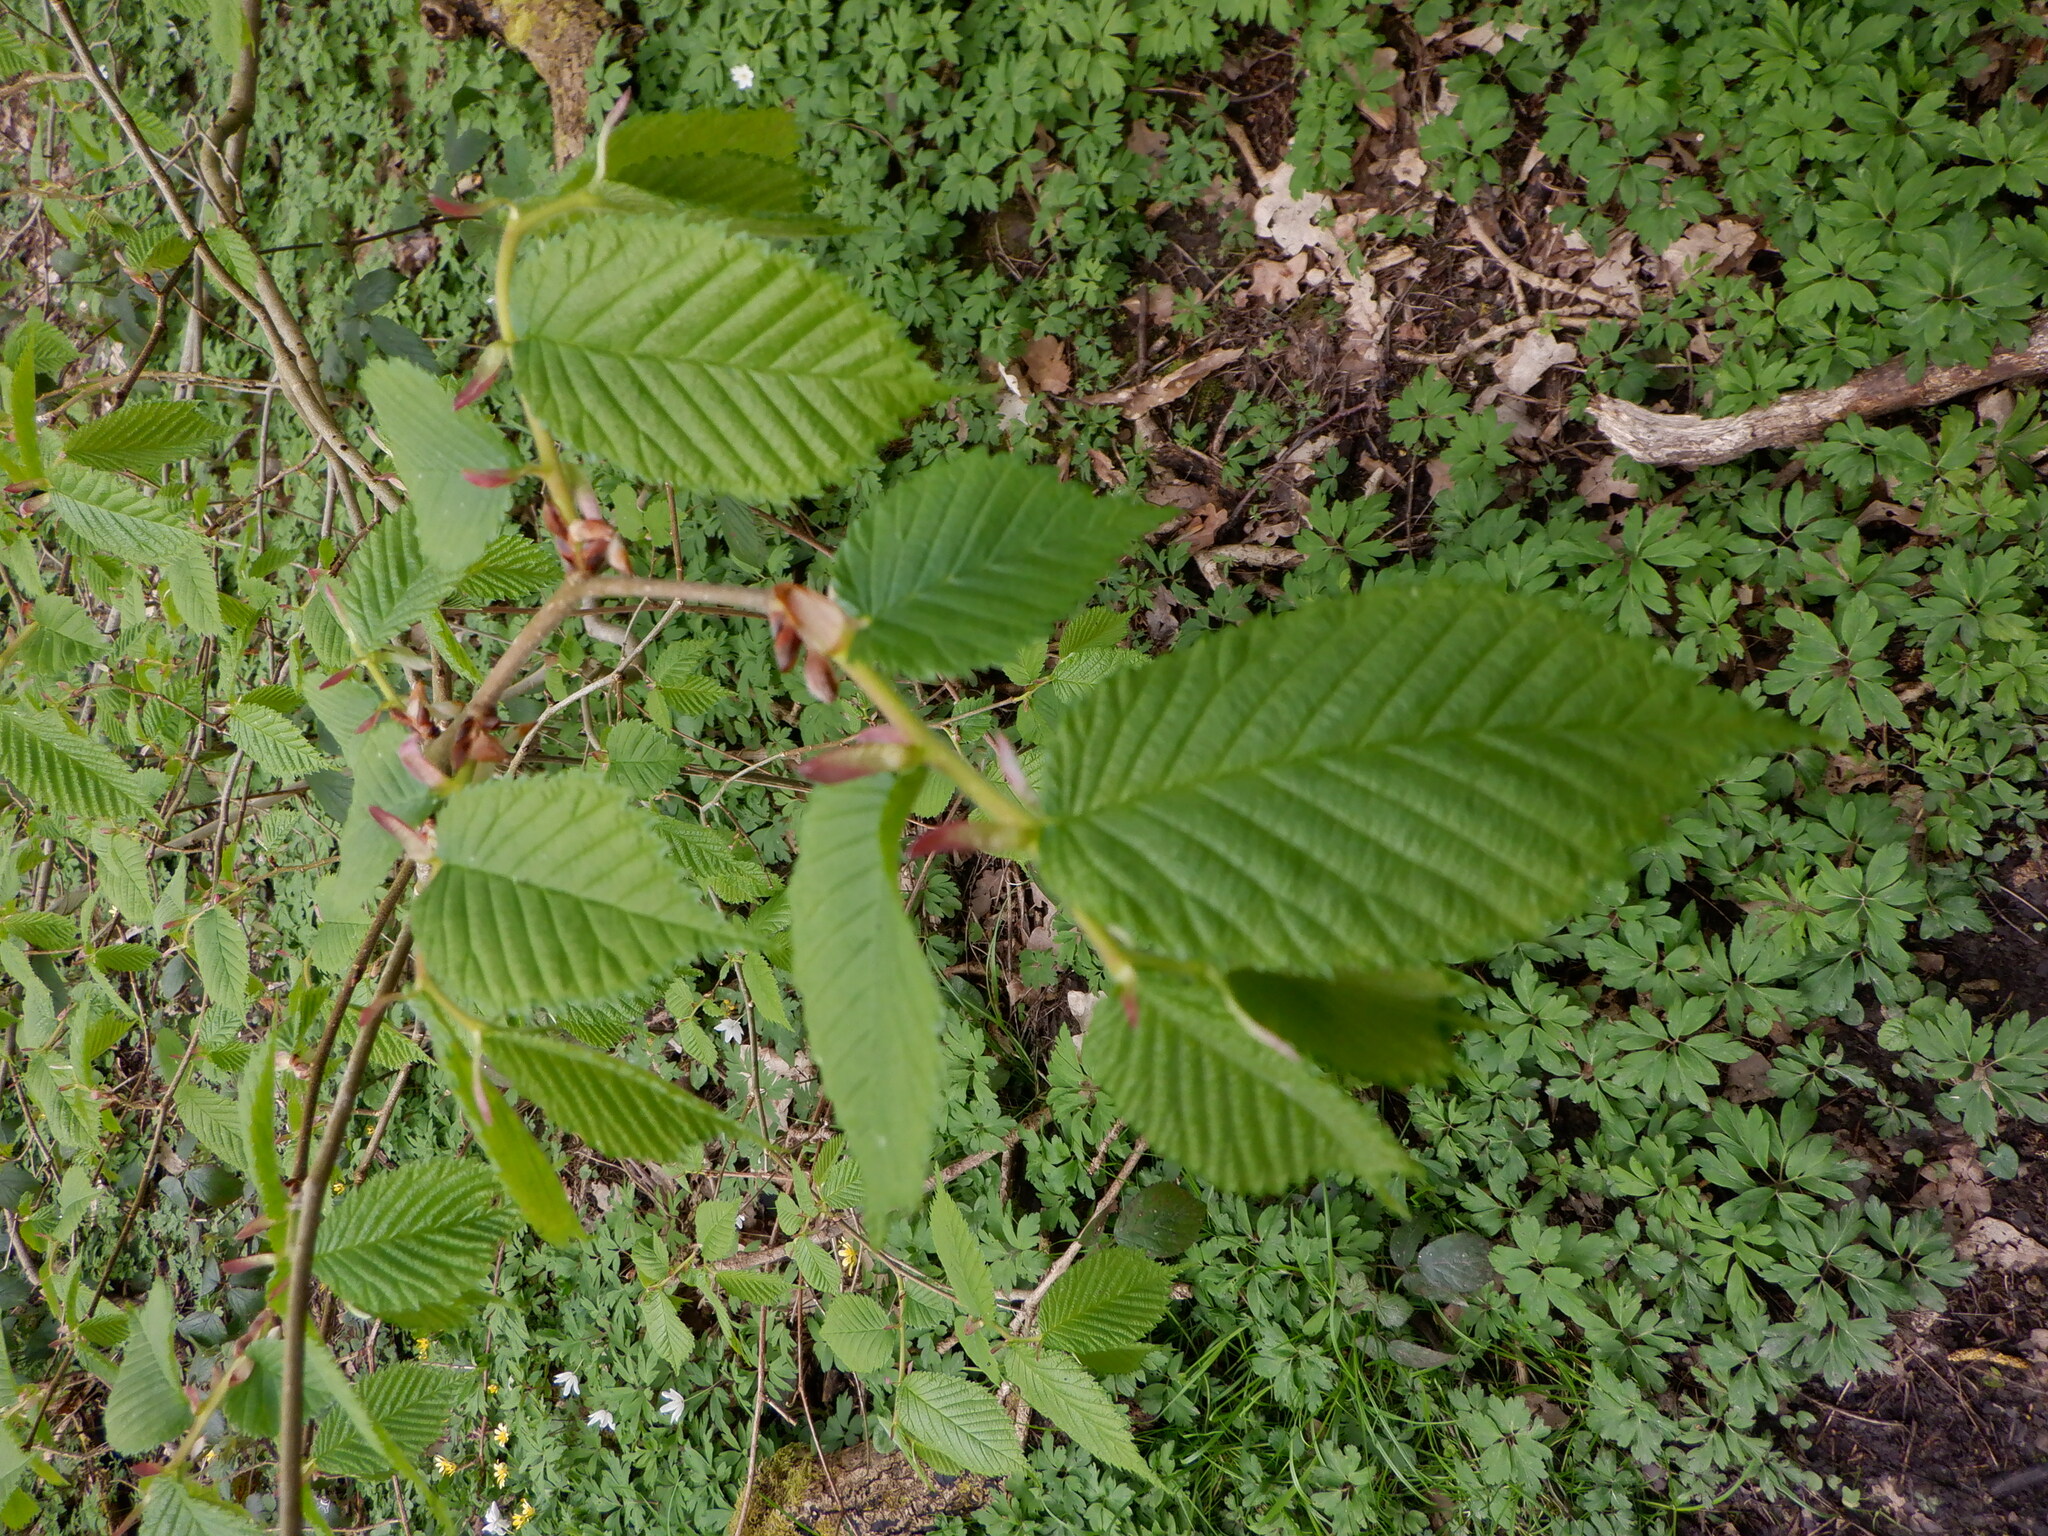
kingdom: Plantae
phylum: Tracheophyta
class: Magnoliopsida
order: Rosales
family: Ulmaceae
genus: Ulmus
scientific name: Ulmus glabra
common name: Wych elm
